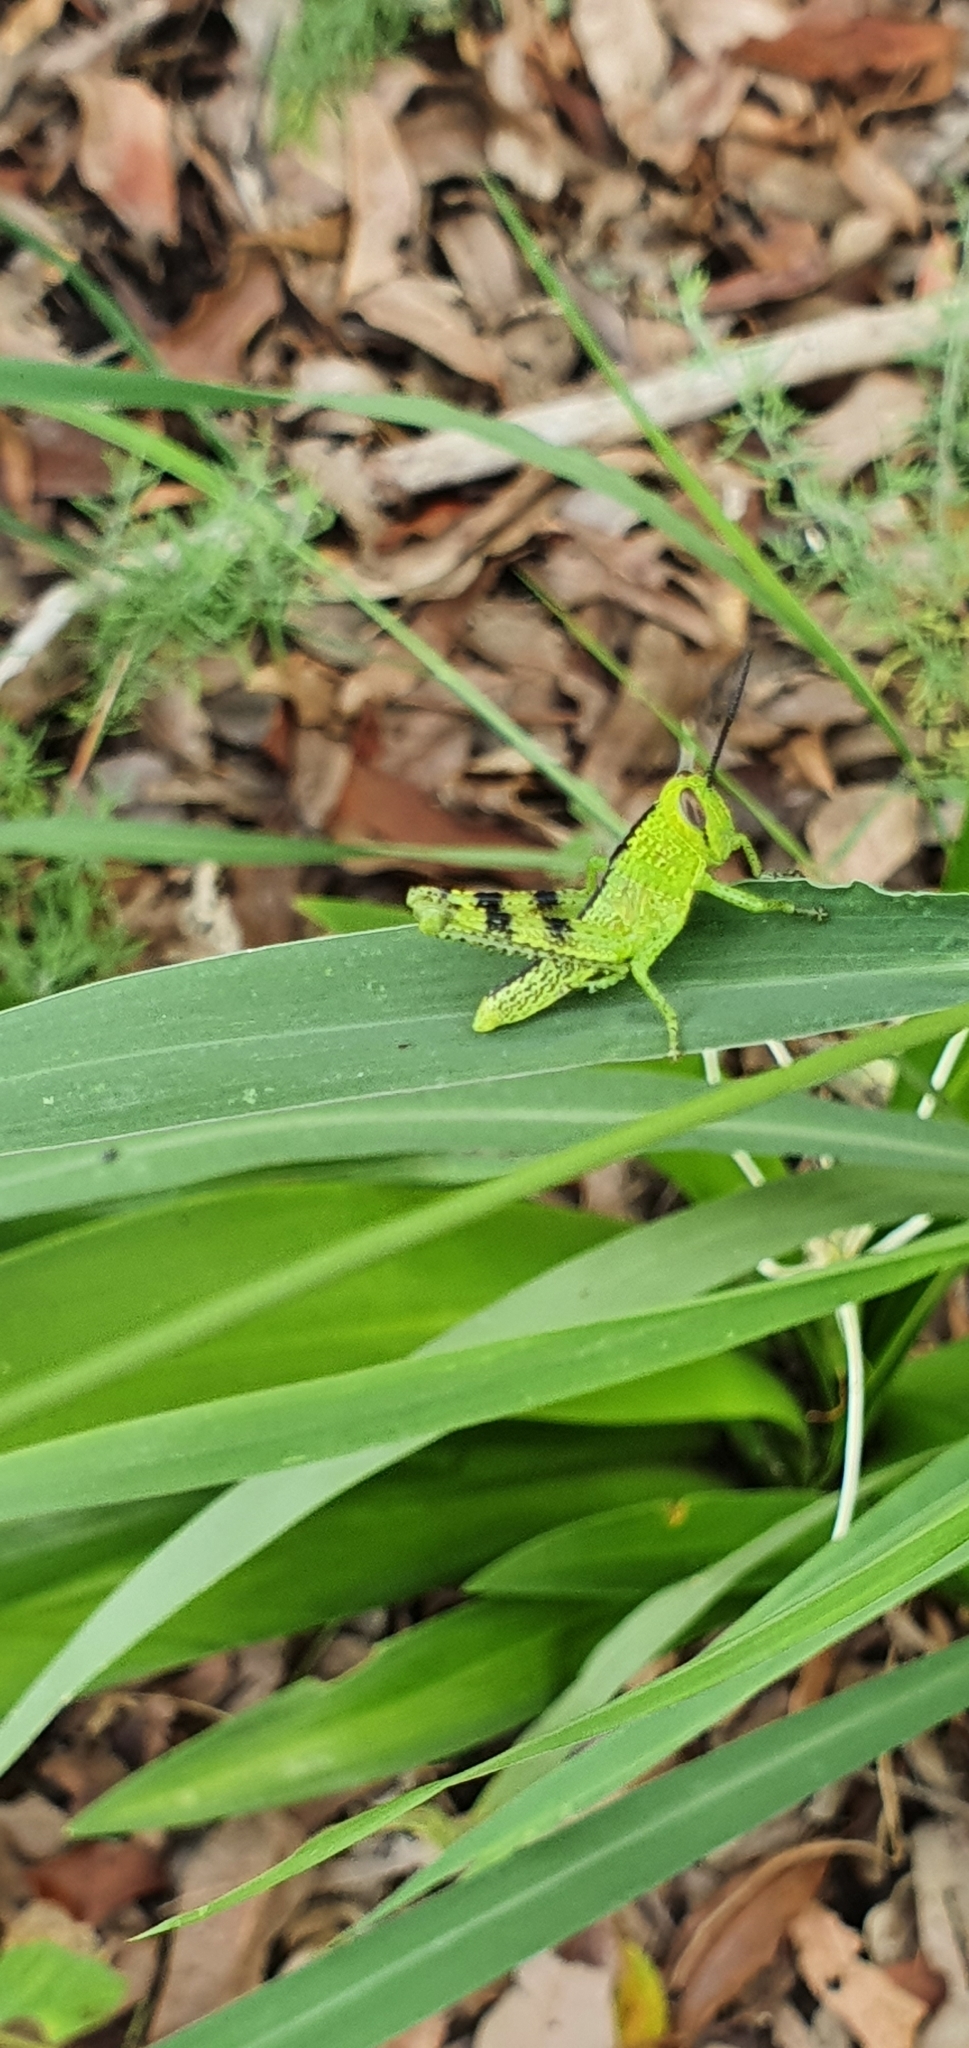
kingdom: Animalia
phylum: Arthropoda
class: Insecta
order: Orthoptera
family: Acrididae
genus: Valanga
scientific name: Valanga irregularis
